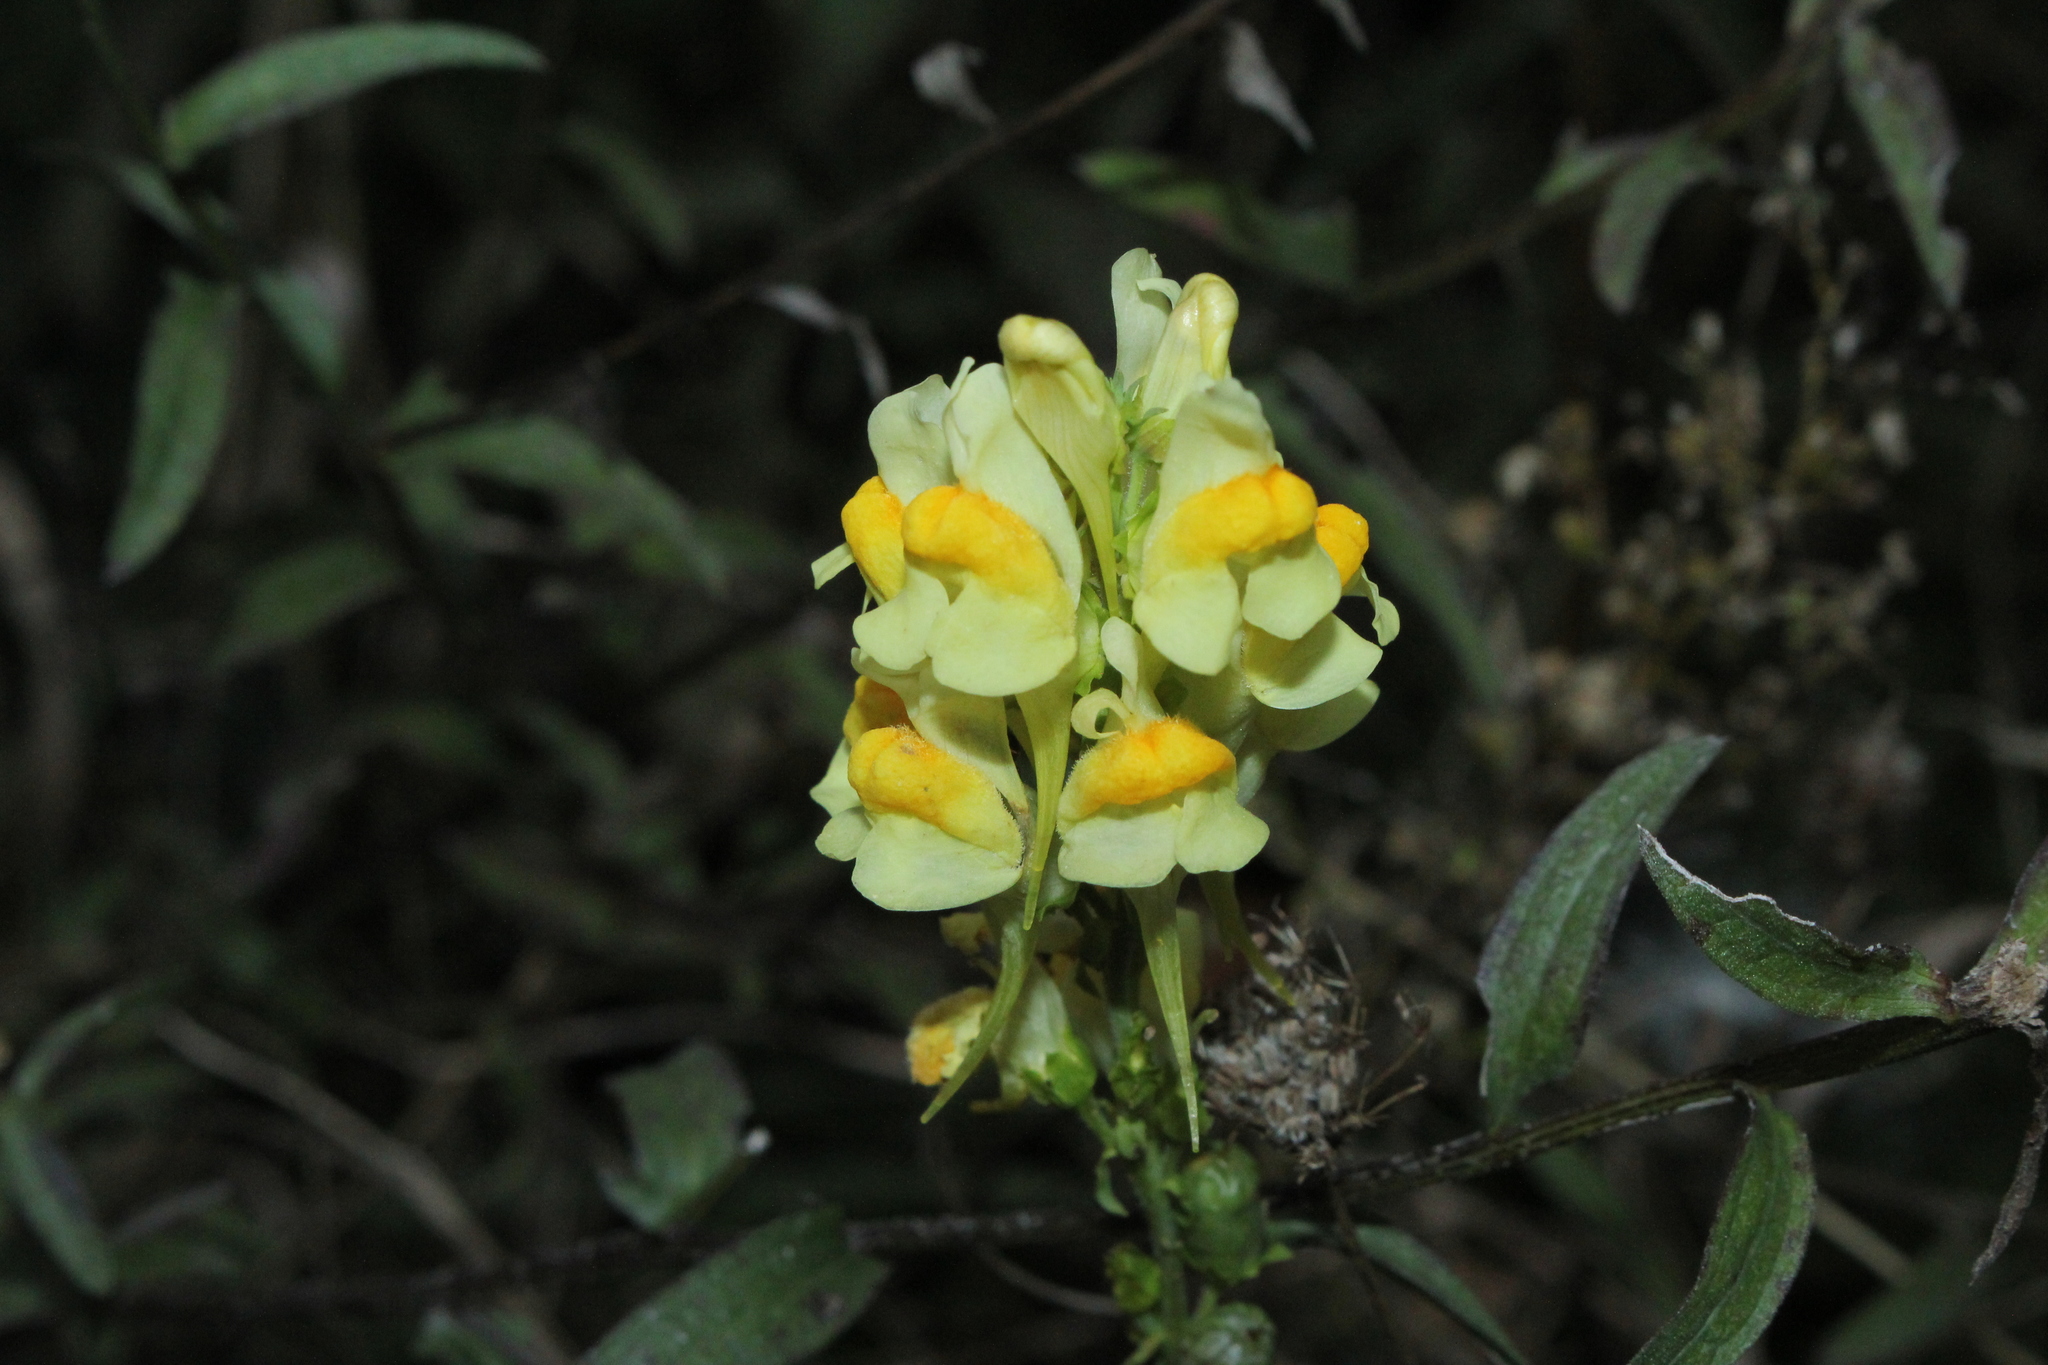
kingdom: Plantae
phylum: Tracheophyta
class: Magnoliopsida
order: Lamiales
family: Plantaginaceae
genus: Linaria
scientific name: Linaria vulgaris
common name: Butter and eggs
